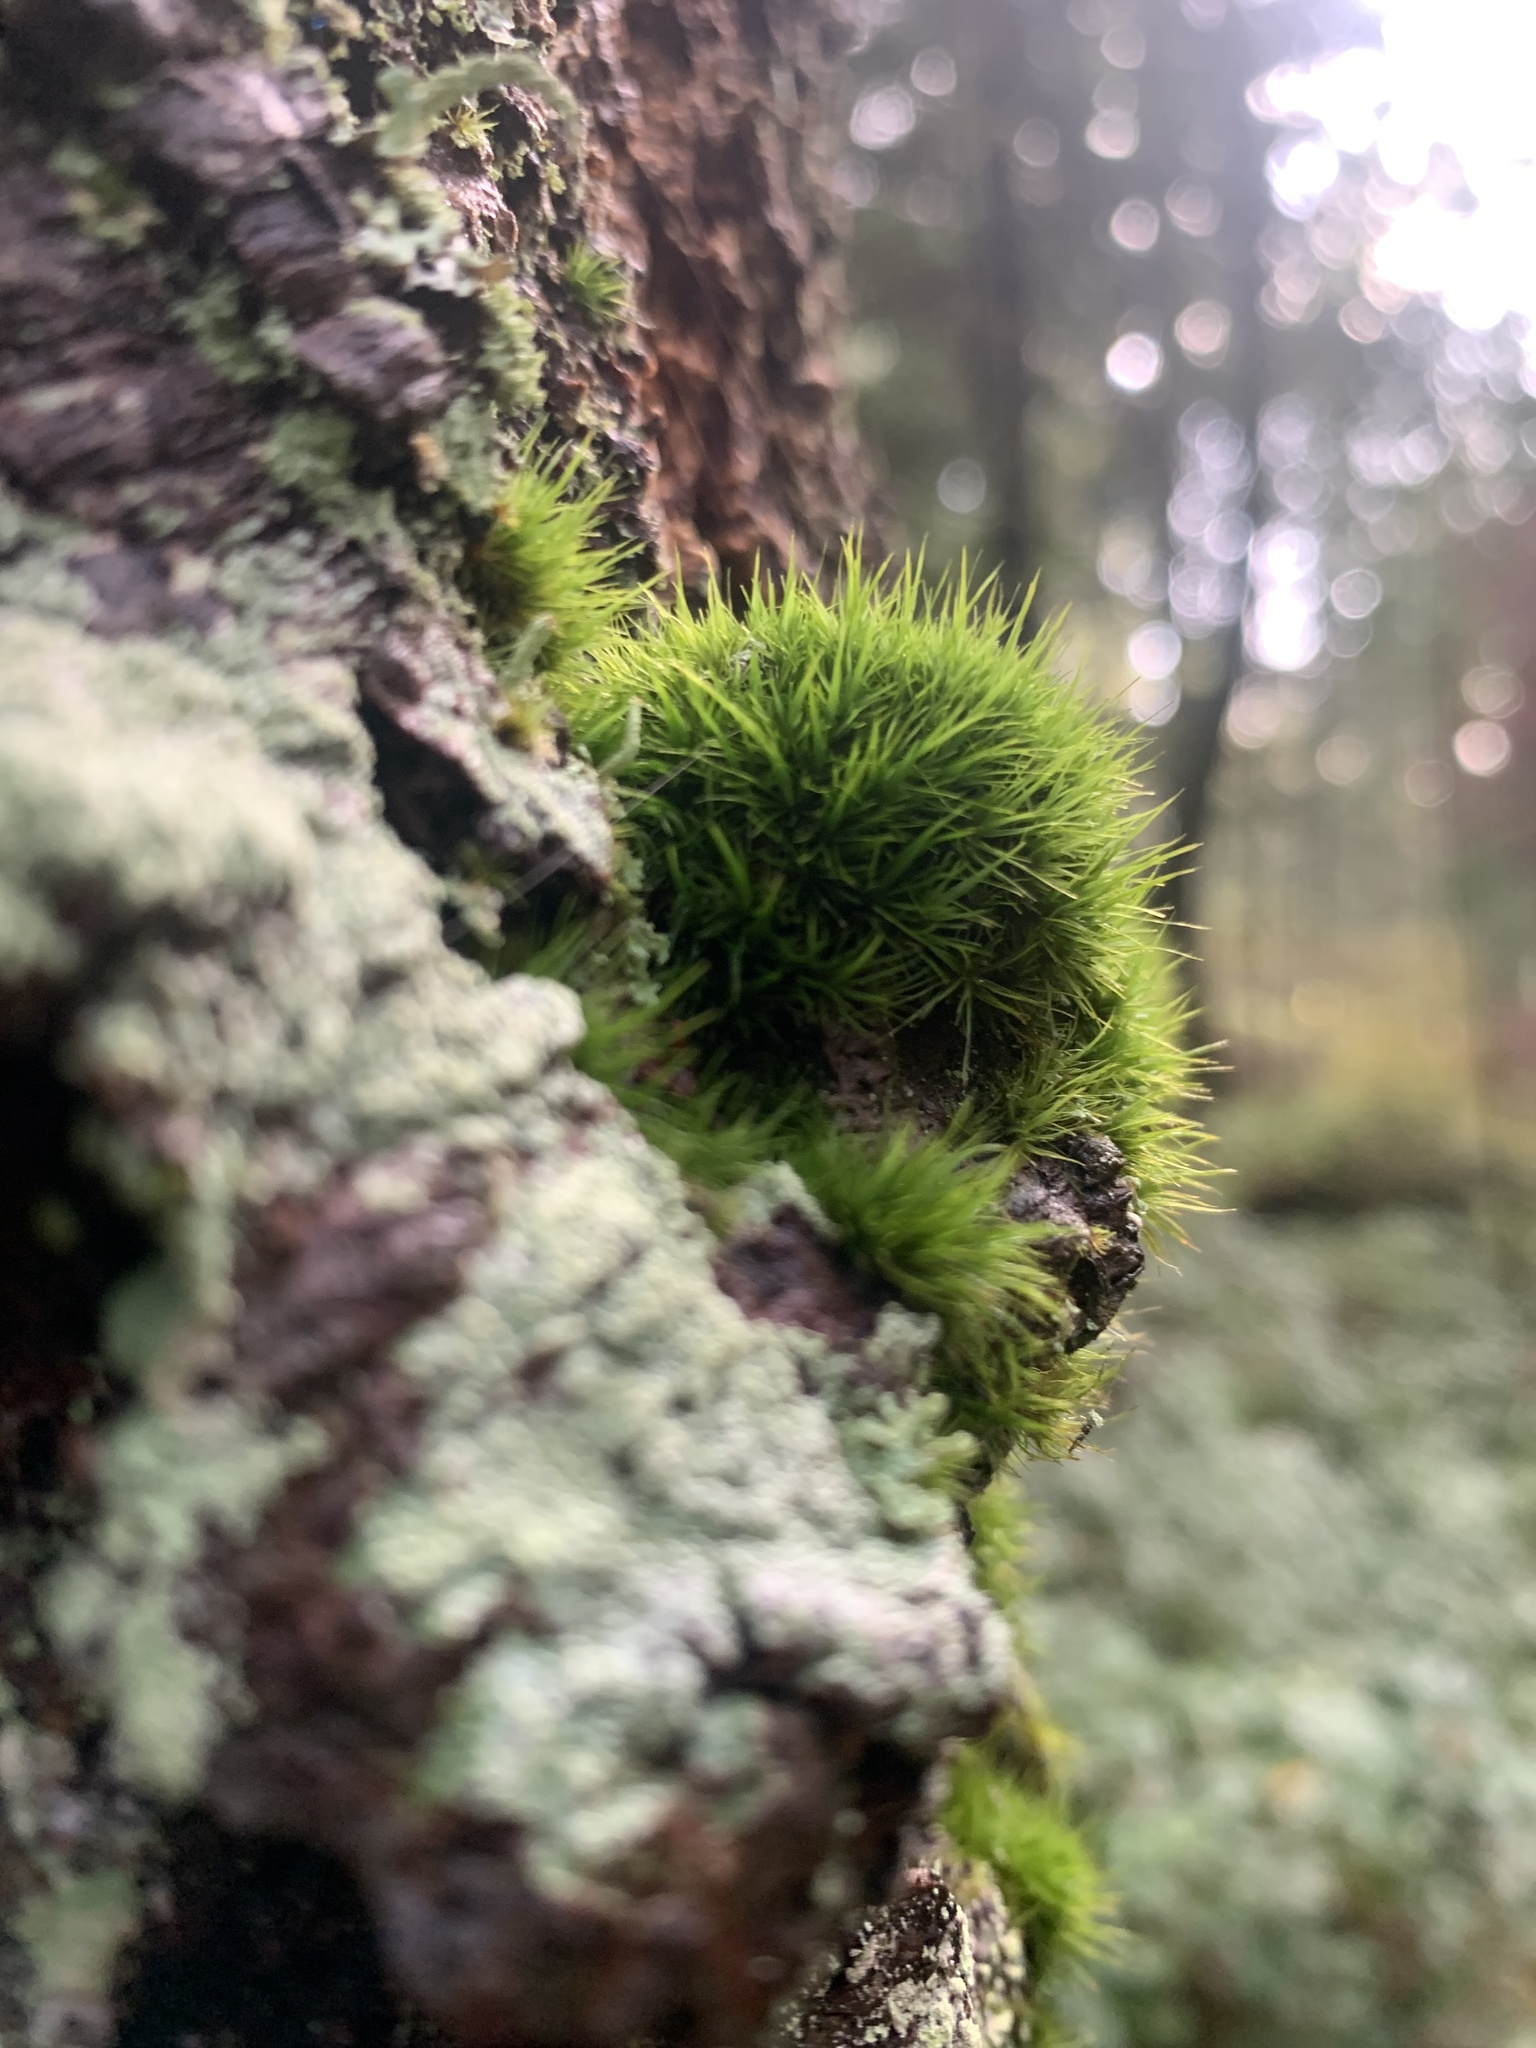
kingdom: Plantae
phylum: Bryophyta
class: Bryopsida
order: Dicranales
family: Dicranaceae
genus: Orthodicranum
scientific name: Orthodicranum tauricum
